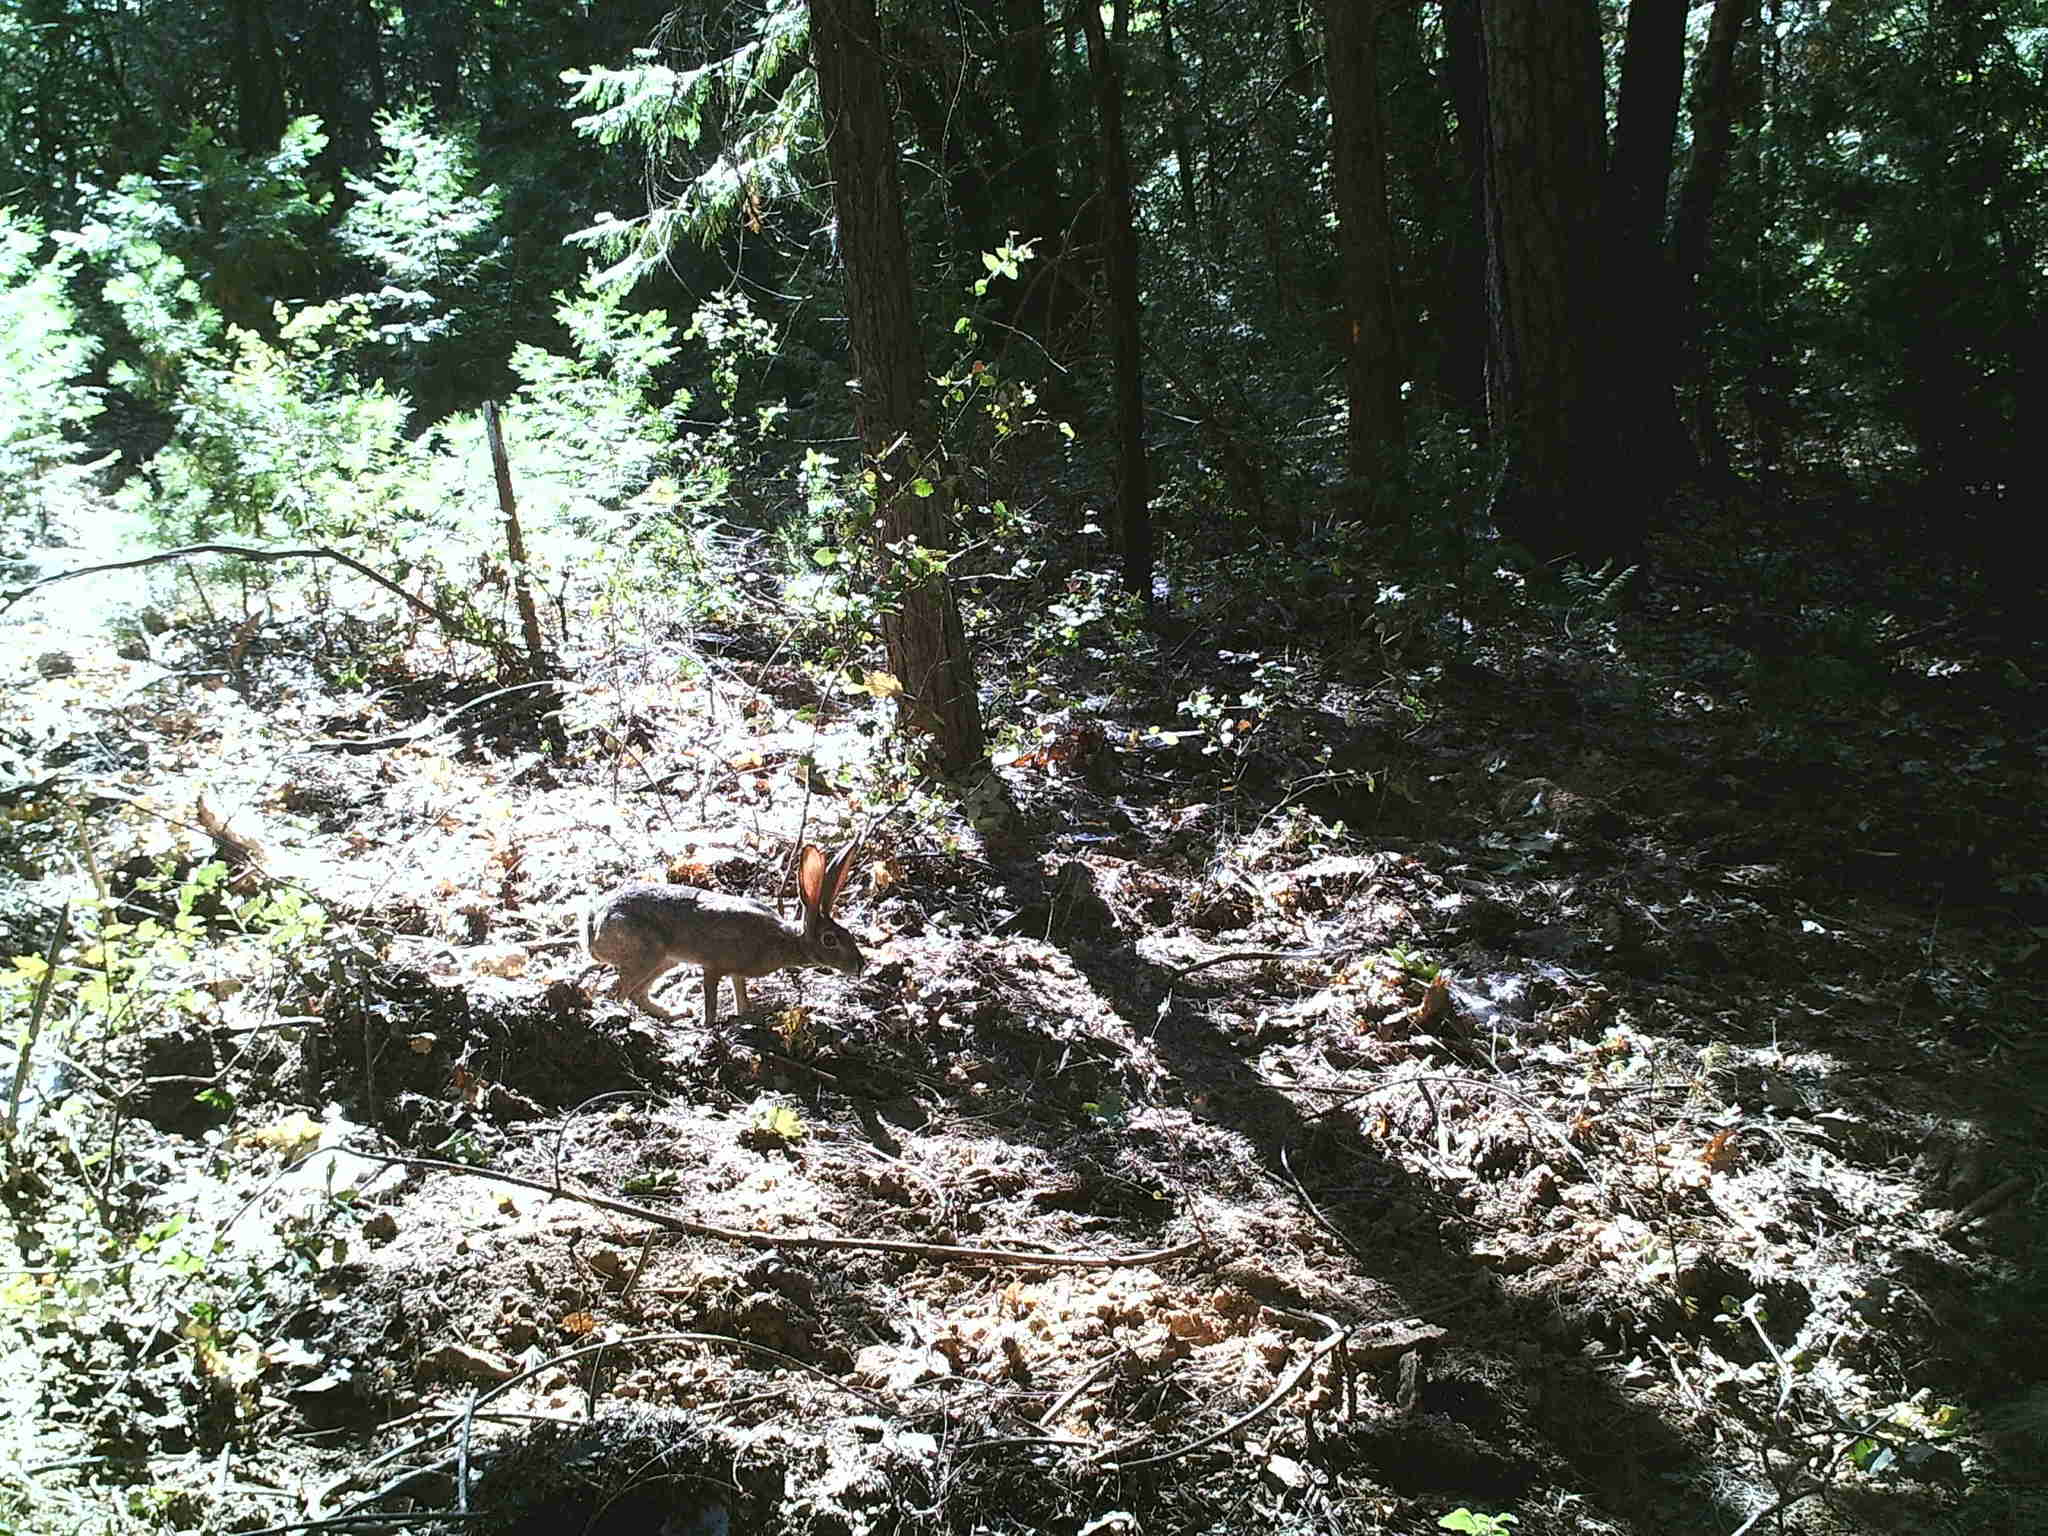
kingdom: Animalia
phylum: Chordata
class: Mammalia
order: Lagomorpha
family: Leporidae
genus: Lepus
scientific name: Lepus californicus
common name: Black-tailed jackrabbit
